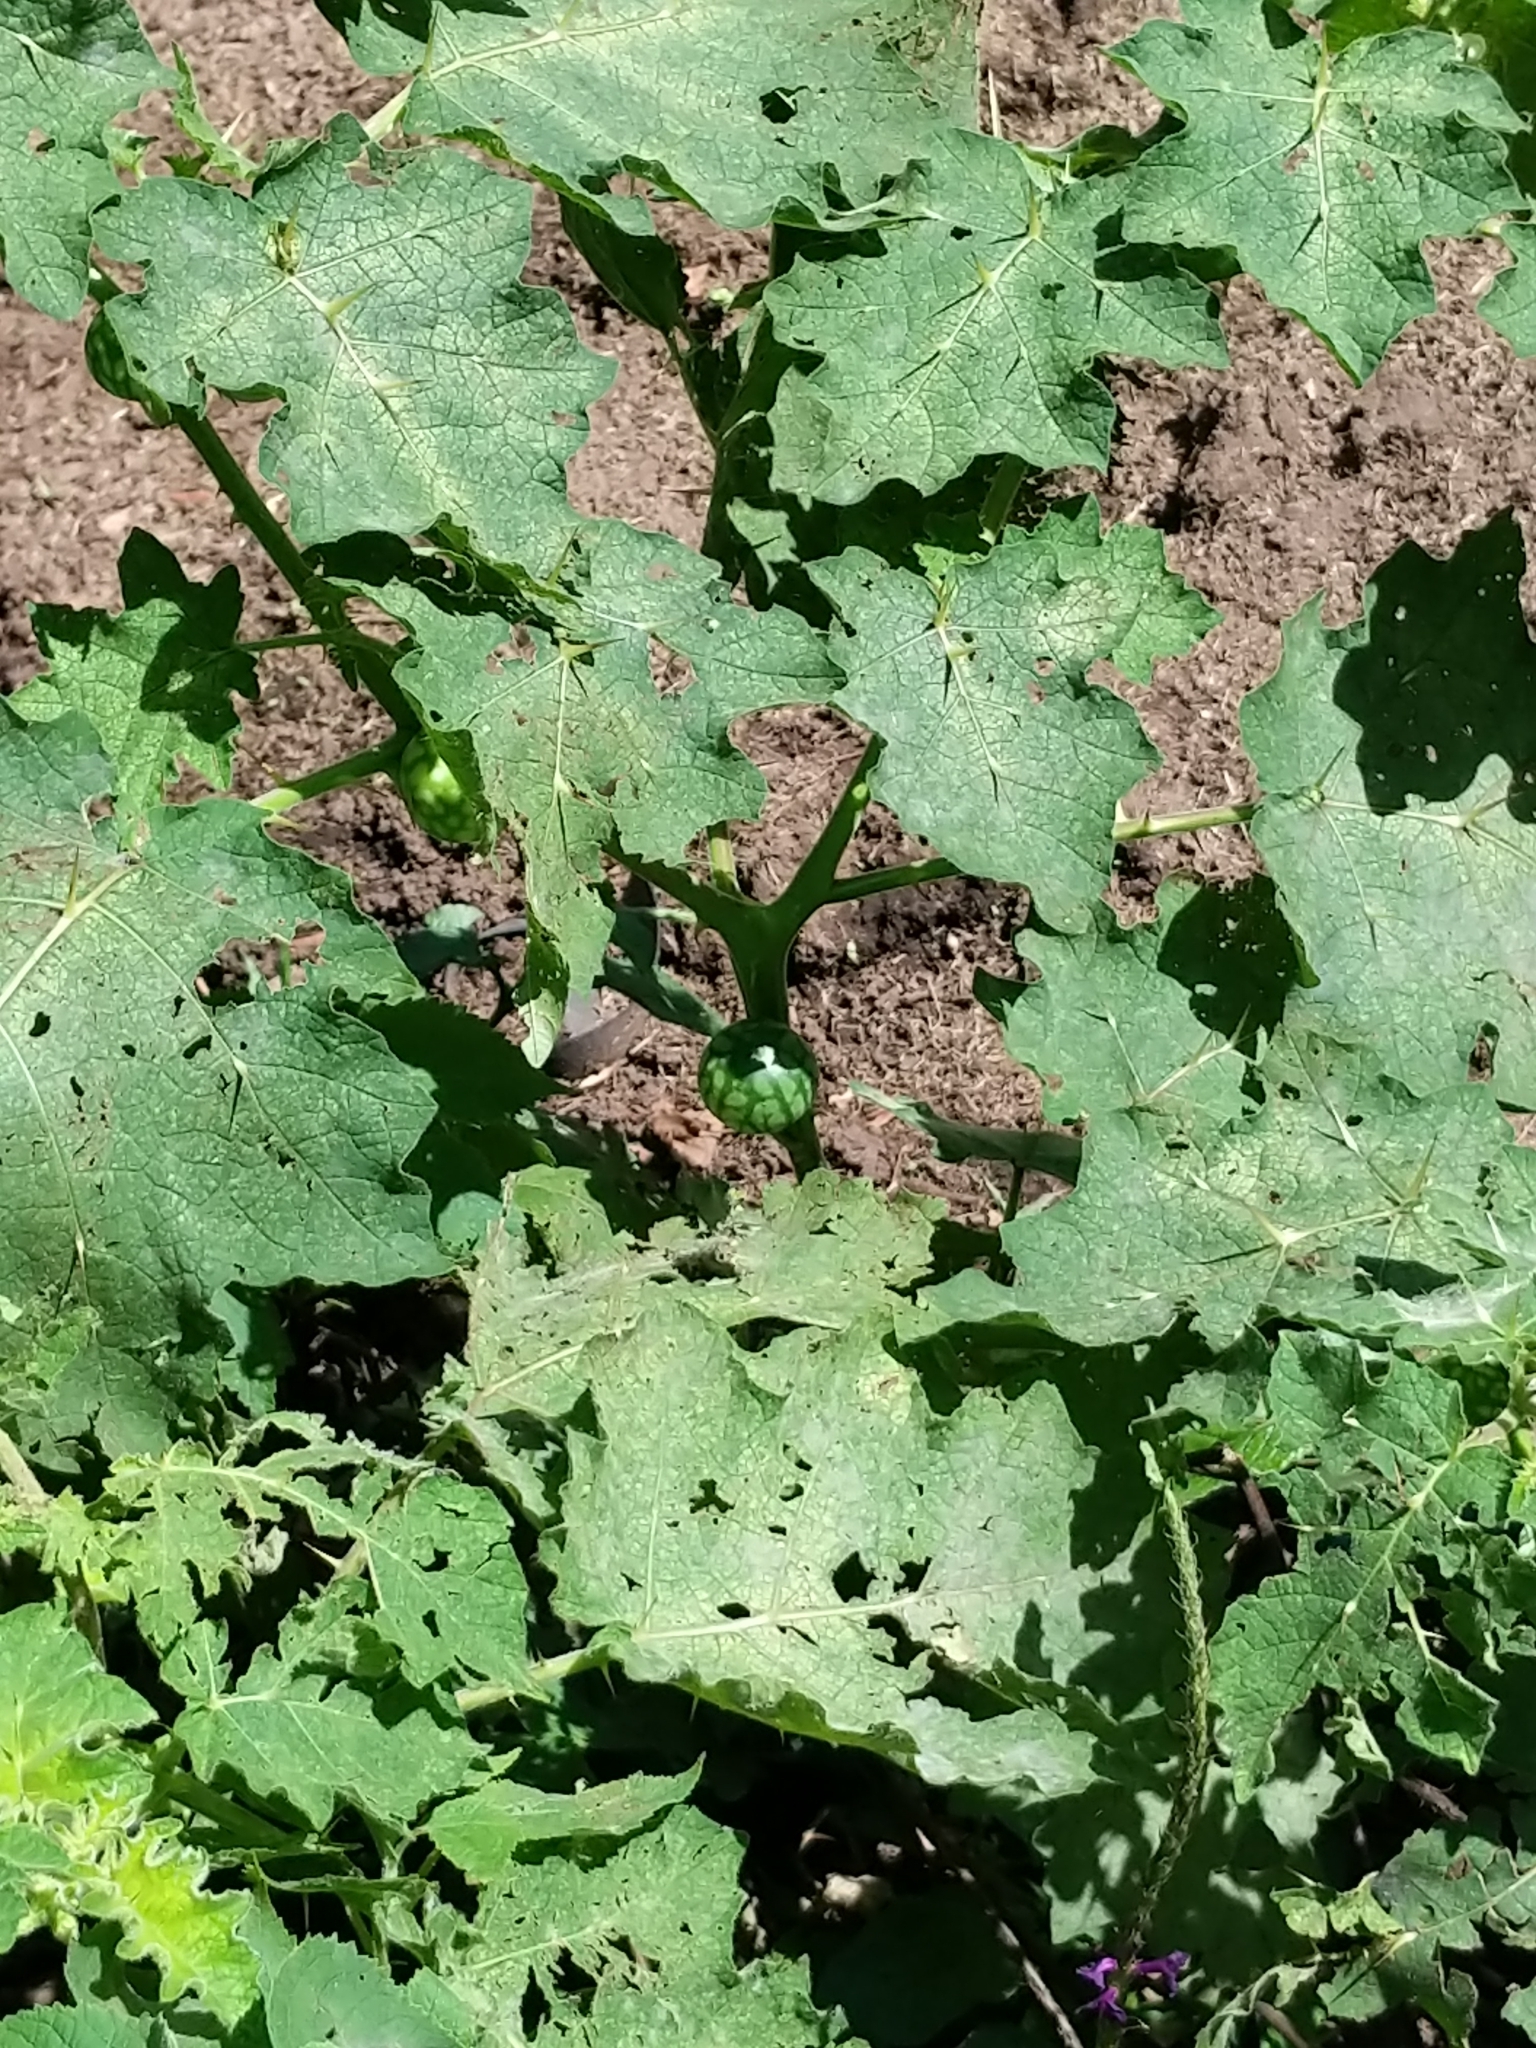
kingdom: Plantae
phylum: Tracheophyta
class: Magnoliopsida
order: Solanales
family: Solanaceae
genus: Solanum
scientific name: Solanum viarum
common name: Tropical soda apple
